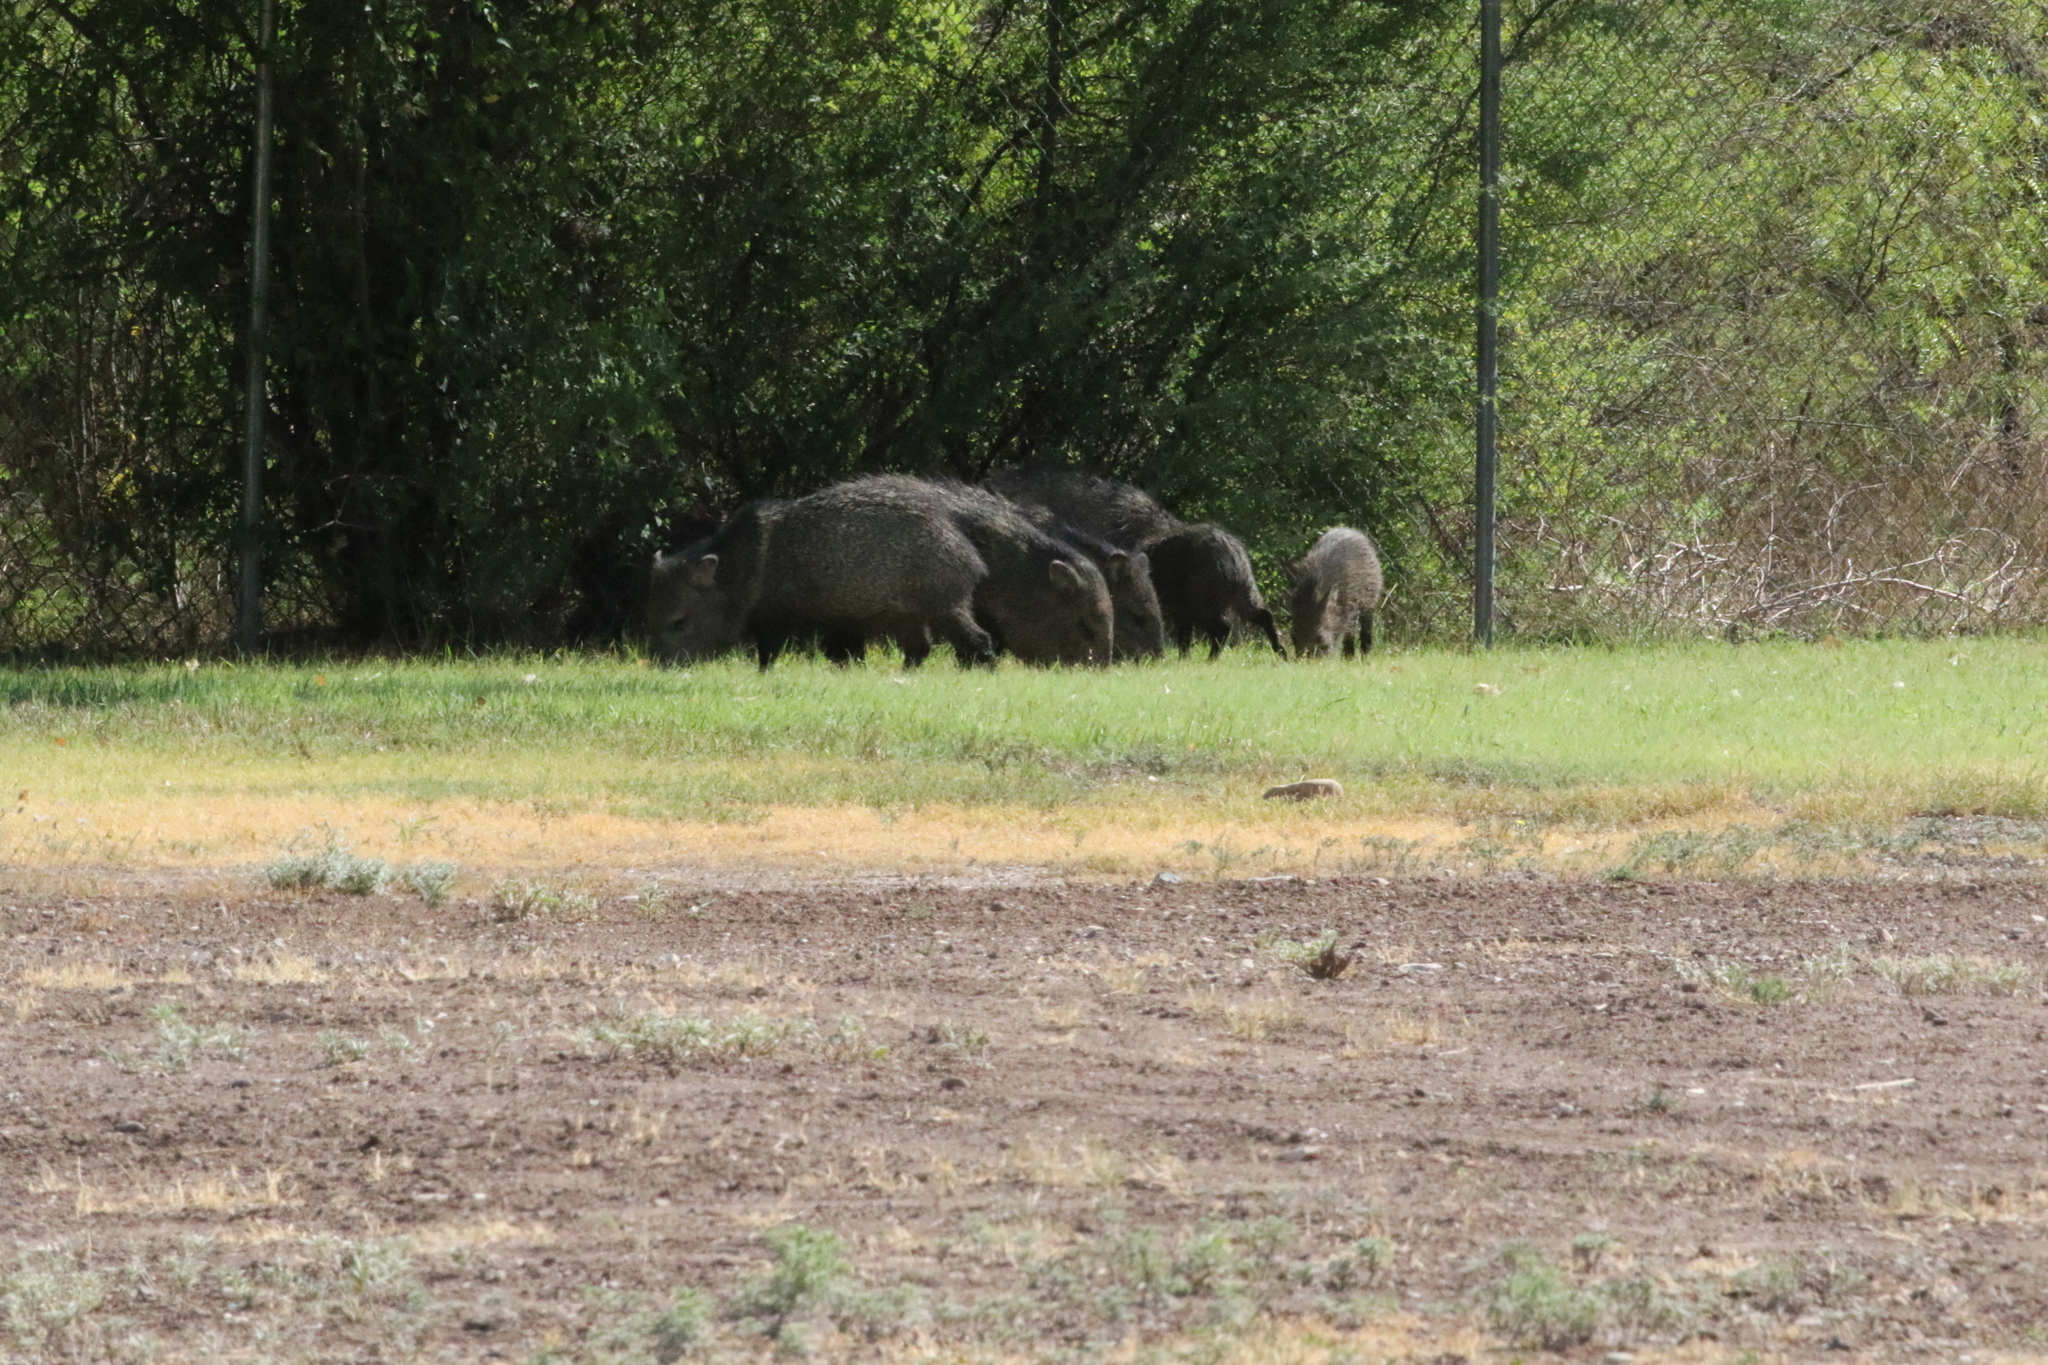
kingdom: Animalia
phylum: Chordata
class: Mammalia
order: Artiodactyla
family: Tayassuidae
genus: Pecari
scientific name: Pecari tajacu
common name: Collared peccary
